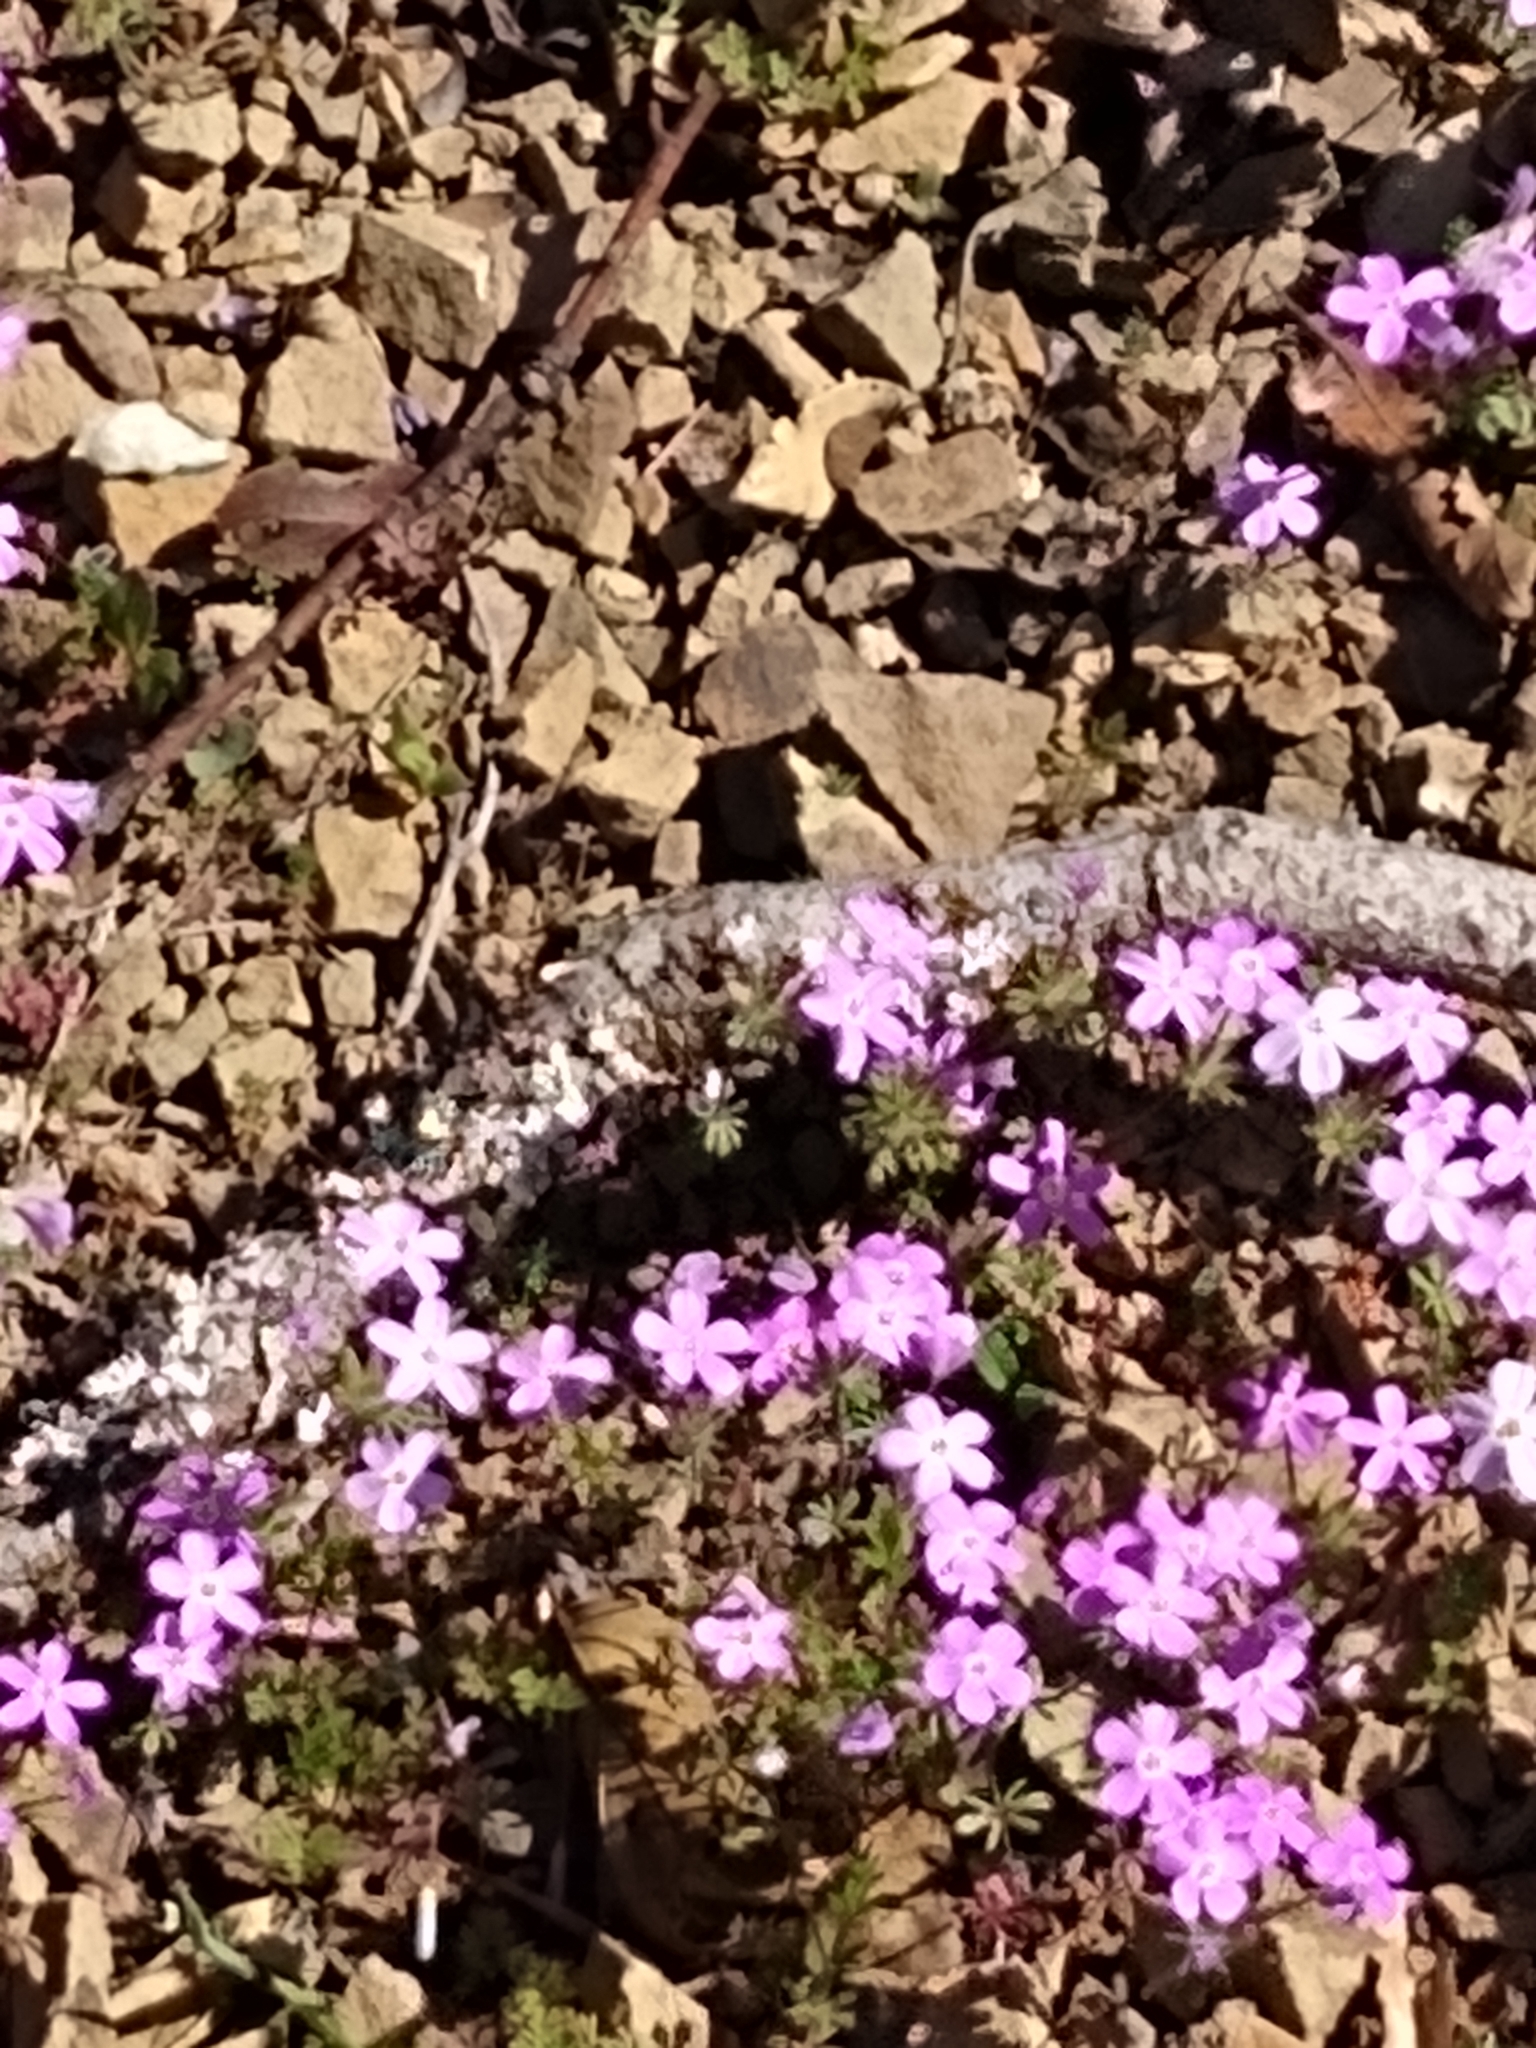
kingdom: Plantae
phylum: Tracheophyta
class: Magnoliopsida
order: Ericales
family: Polemoniaceae
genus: Leptosiphon
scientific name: Leptosiphon latisectus
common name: Coast range linanthus
